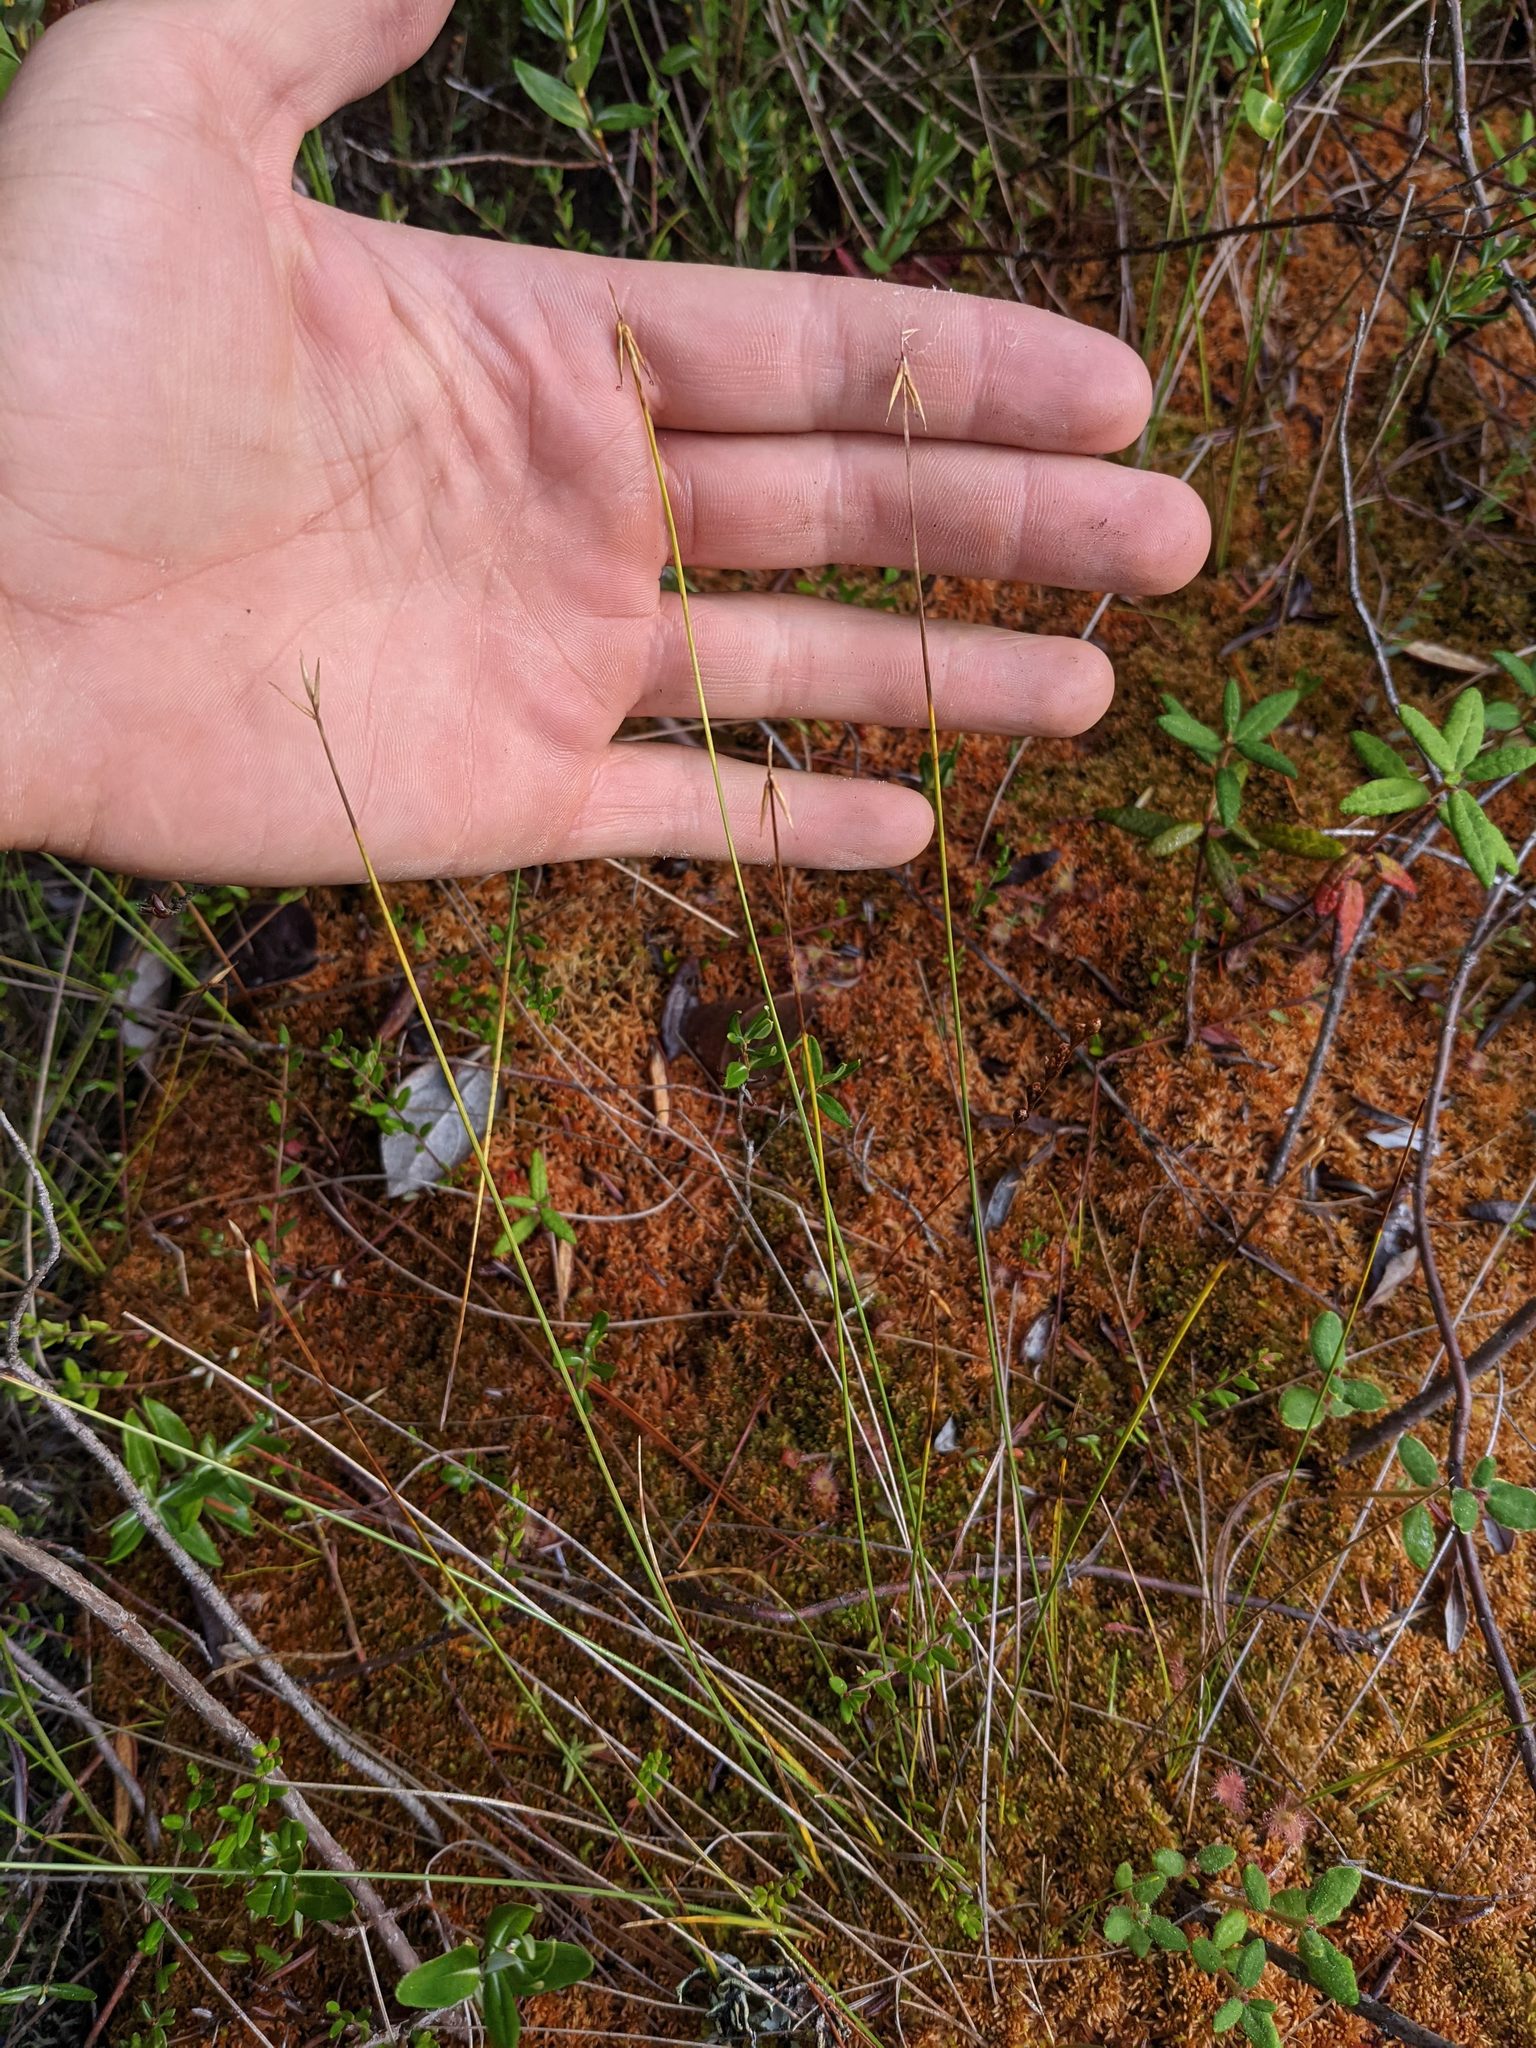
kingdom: Plantae
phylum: Tracheophyta
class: Liliopsida
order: Poales
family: Cyperaceae
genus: Carex
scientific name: Carex pauciflora
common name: Few-flowered sedge
